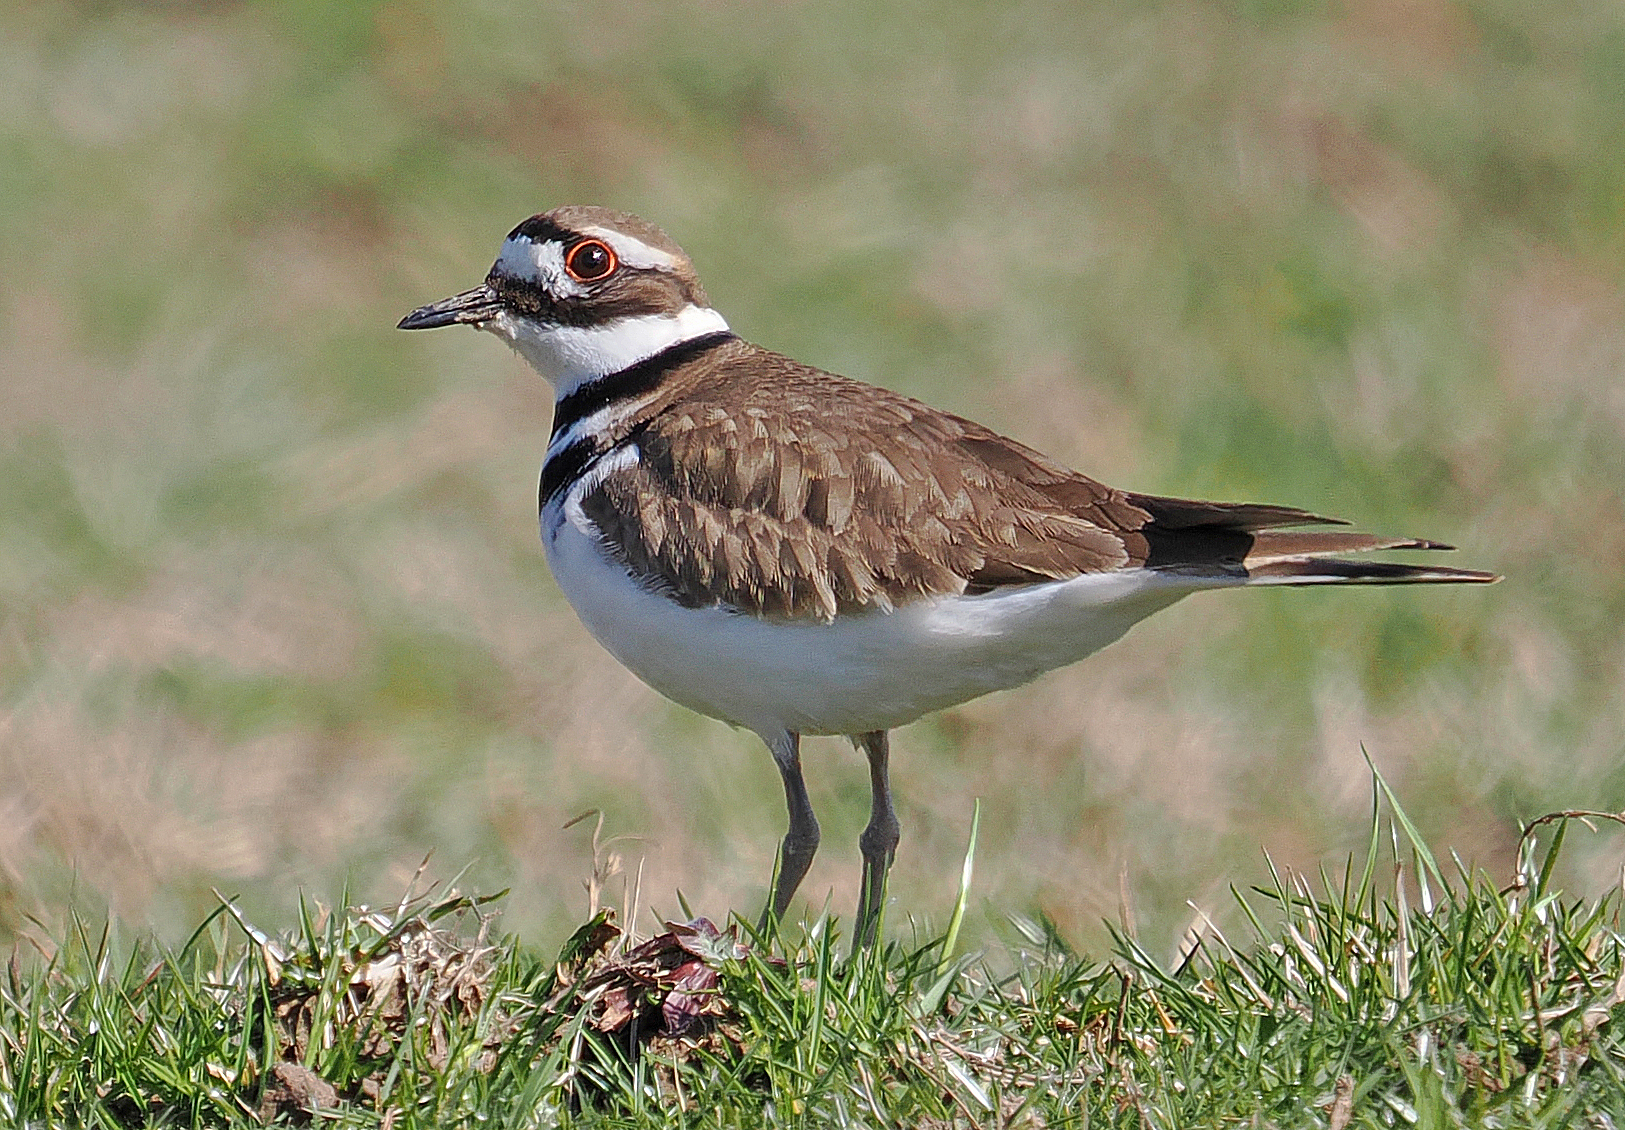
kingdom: Animalia
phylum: Chordata
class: Aves
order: Charadriiformes
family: Charadriidae
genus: Charadrius
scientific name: Charadrius vociferus
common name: Killdeer
